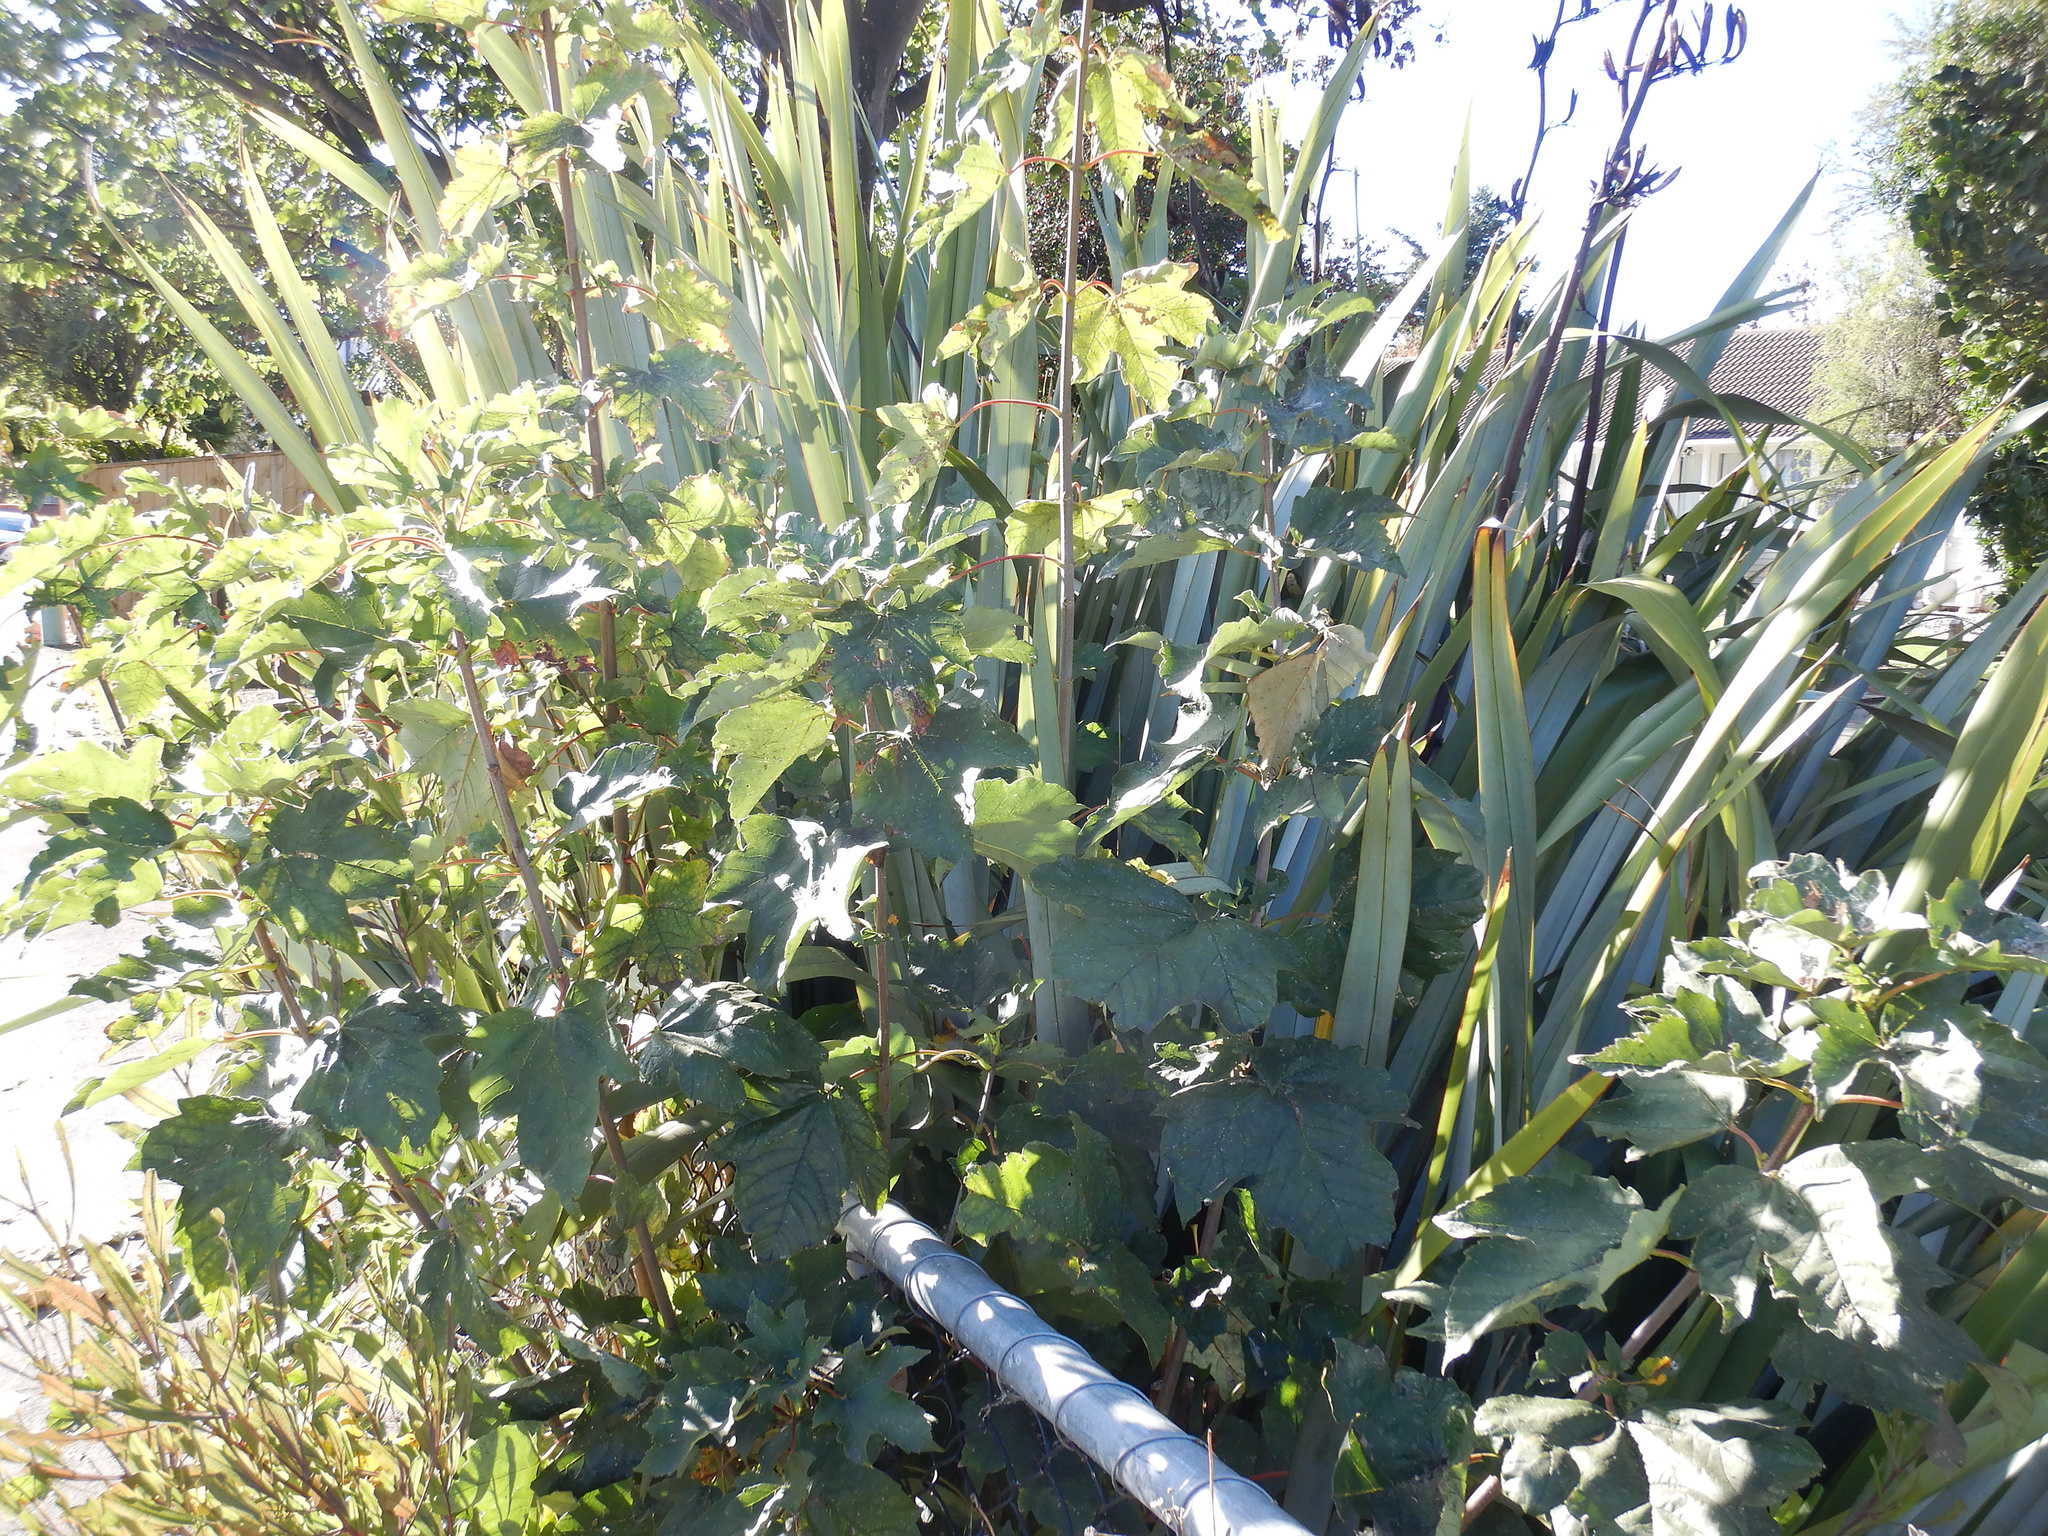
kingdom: Plantae
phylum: Tracheophyta
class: Magnoliopsida
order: Sapindales
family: Sapindaceae
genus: Acer
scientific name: Acer pseudoplatanus
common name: Sycamore
